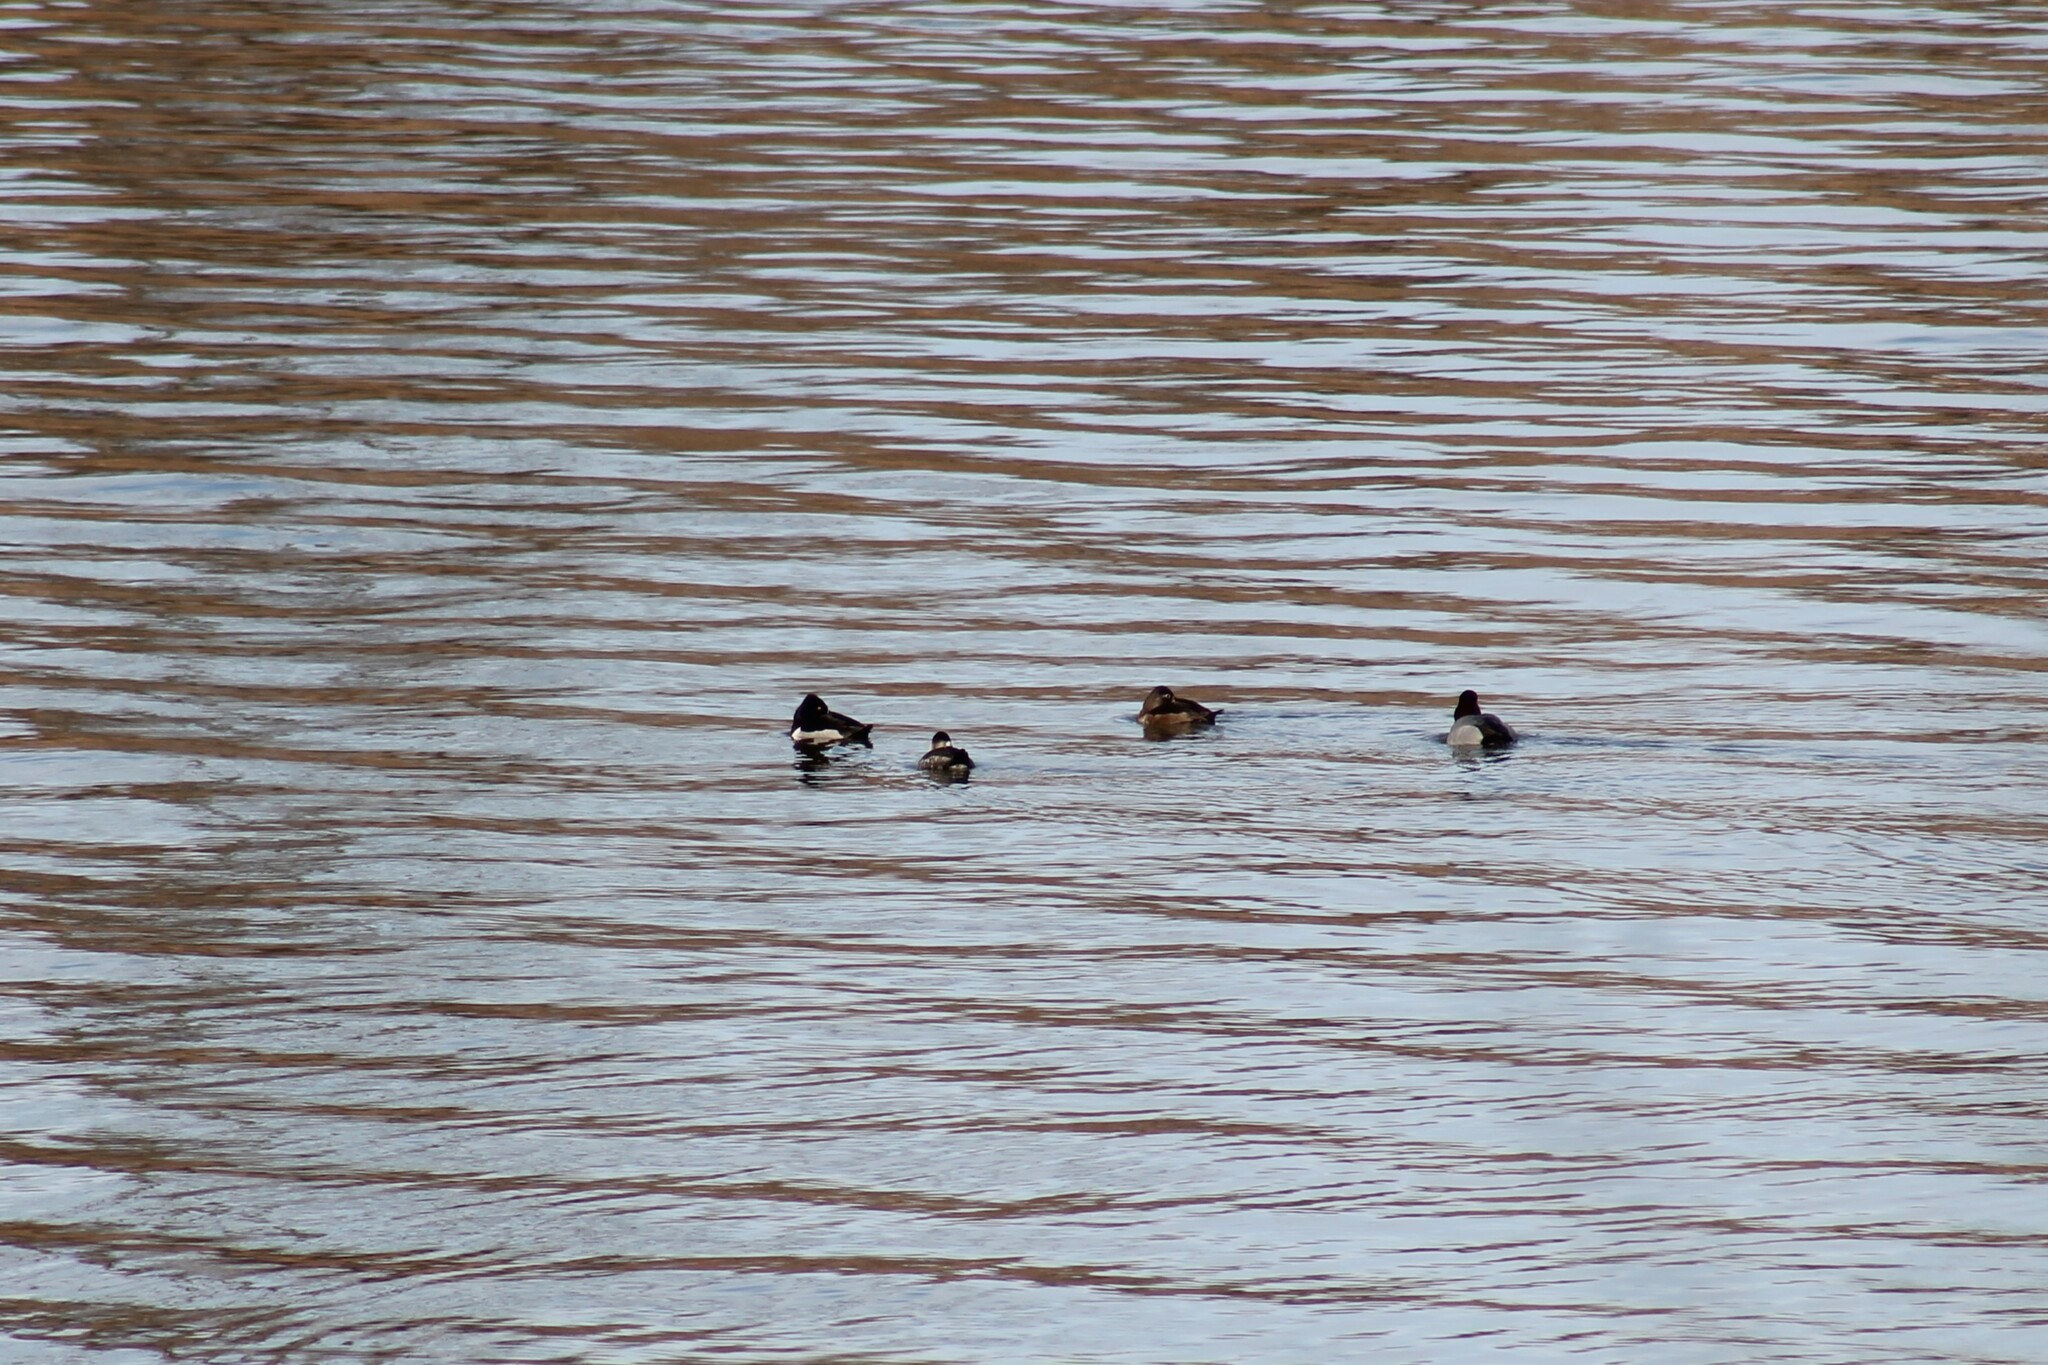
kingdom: Animalia
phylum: Chordata
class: Aves
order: Anseriformes
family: Anatidae
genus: Oxyura
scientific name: Oxyura jamaicensis
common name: Ruddy duck
